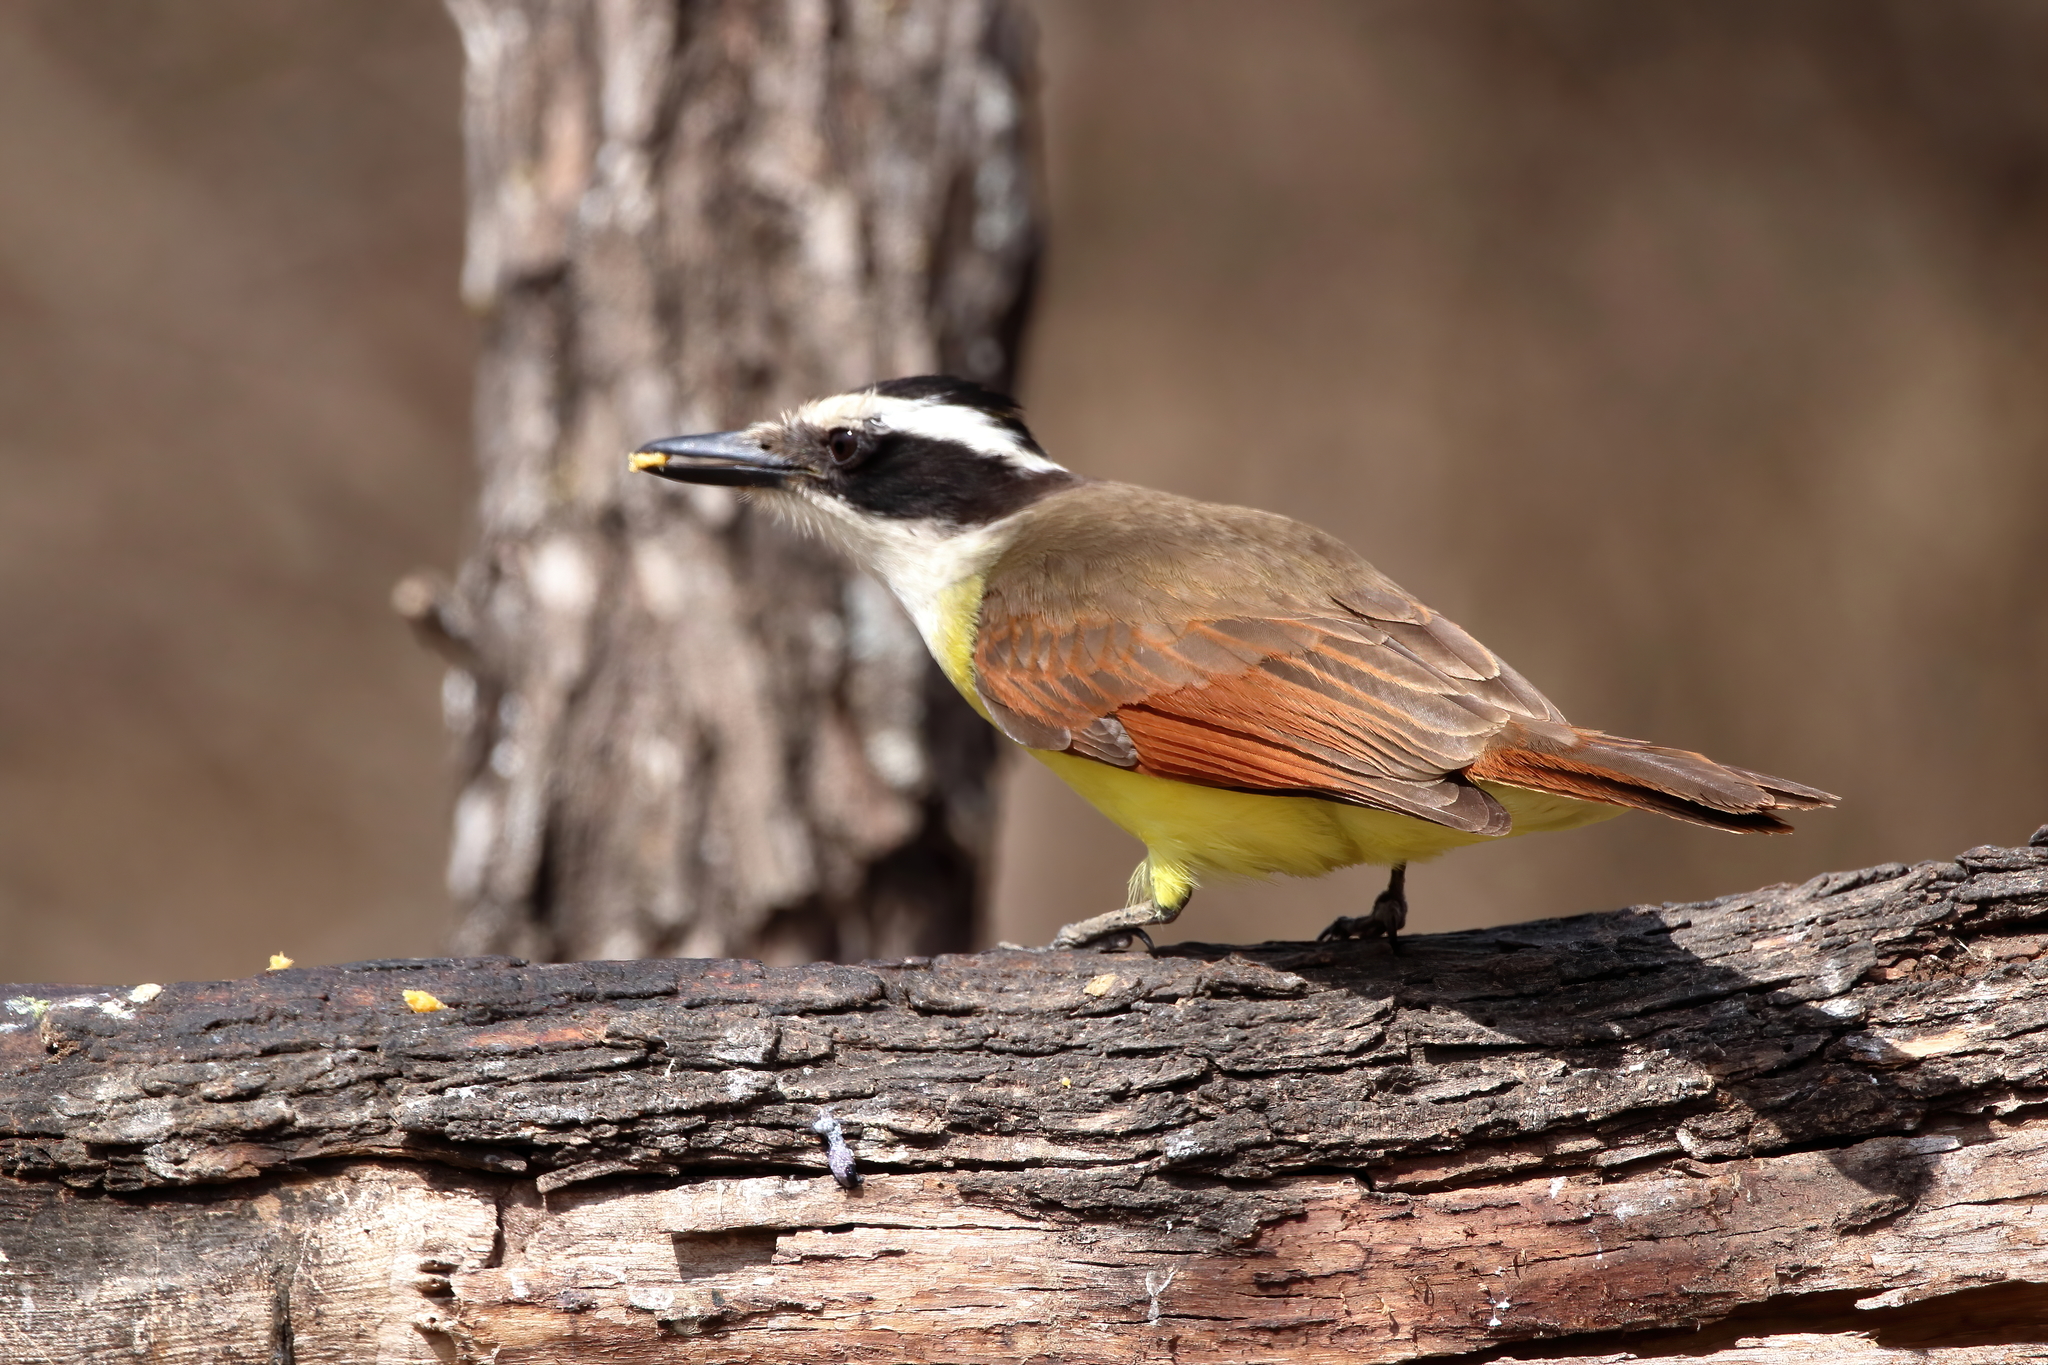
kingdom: Animalia
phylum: Chordata
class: Aves
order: Passeriformes
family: Tyrannidae
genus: Pitangus
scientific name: Pitangus sulphuratus
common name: Great kiskadee
